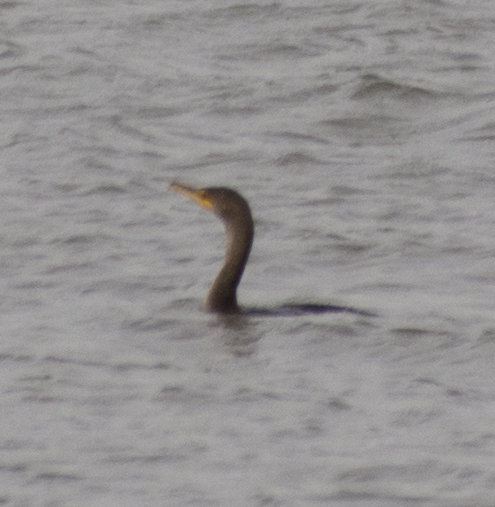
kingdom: Animalia
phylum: Chordata
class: Aves
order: Suliformes
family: Phalacrocoracidae
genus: Phalacrocorax
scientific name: Phalacrocorax auritus
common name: Double-crested cormorant
